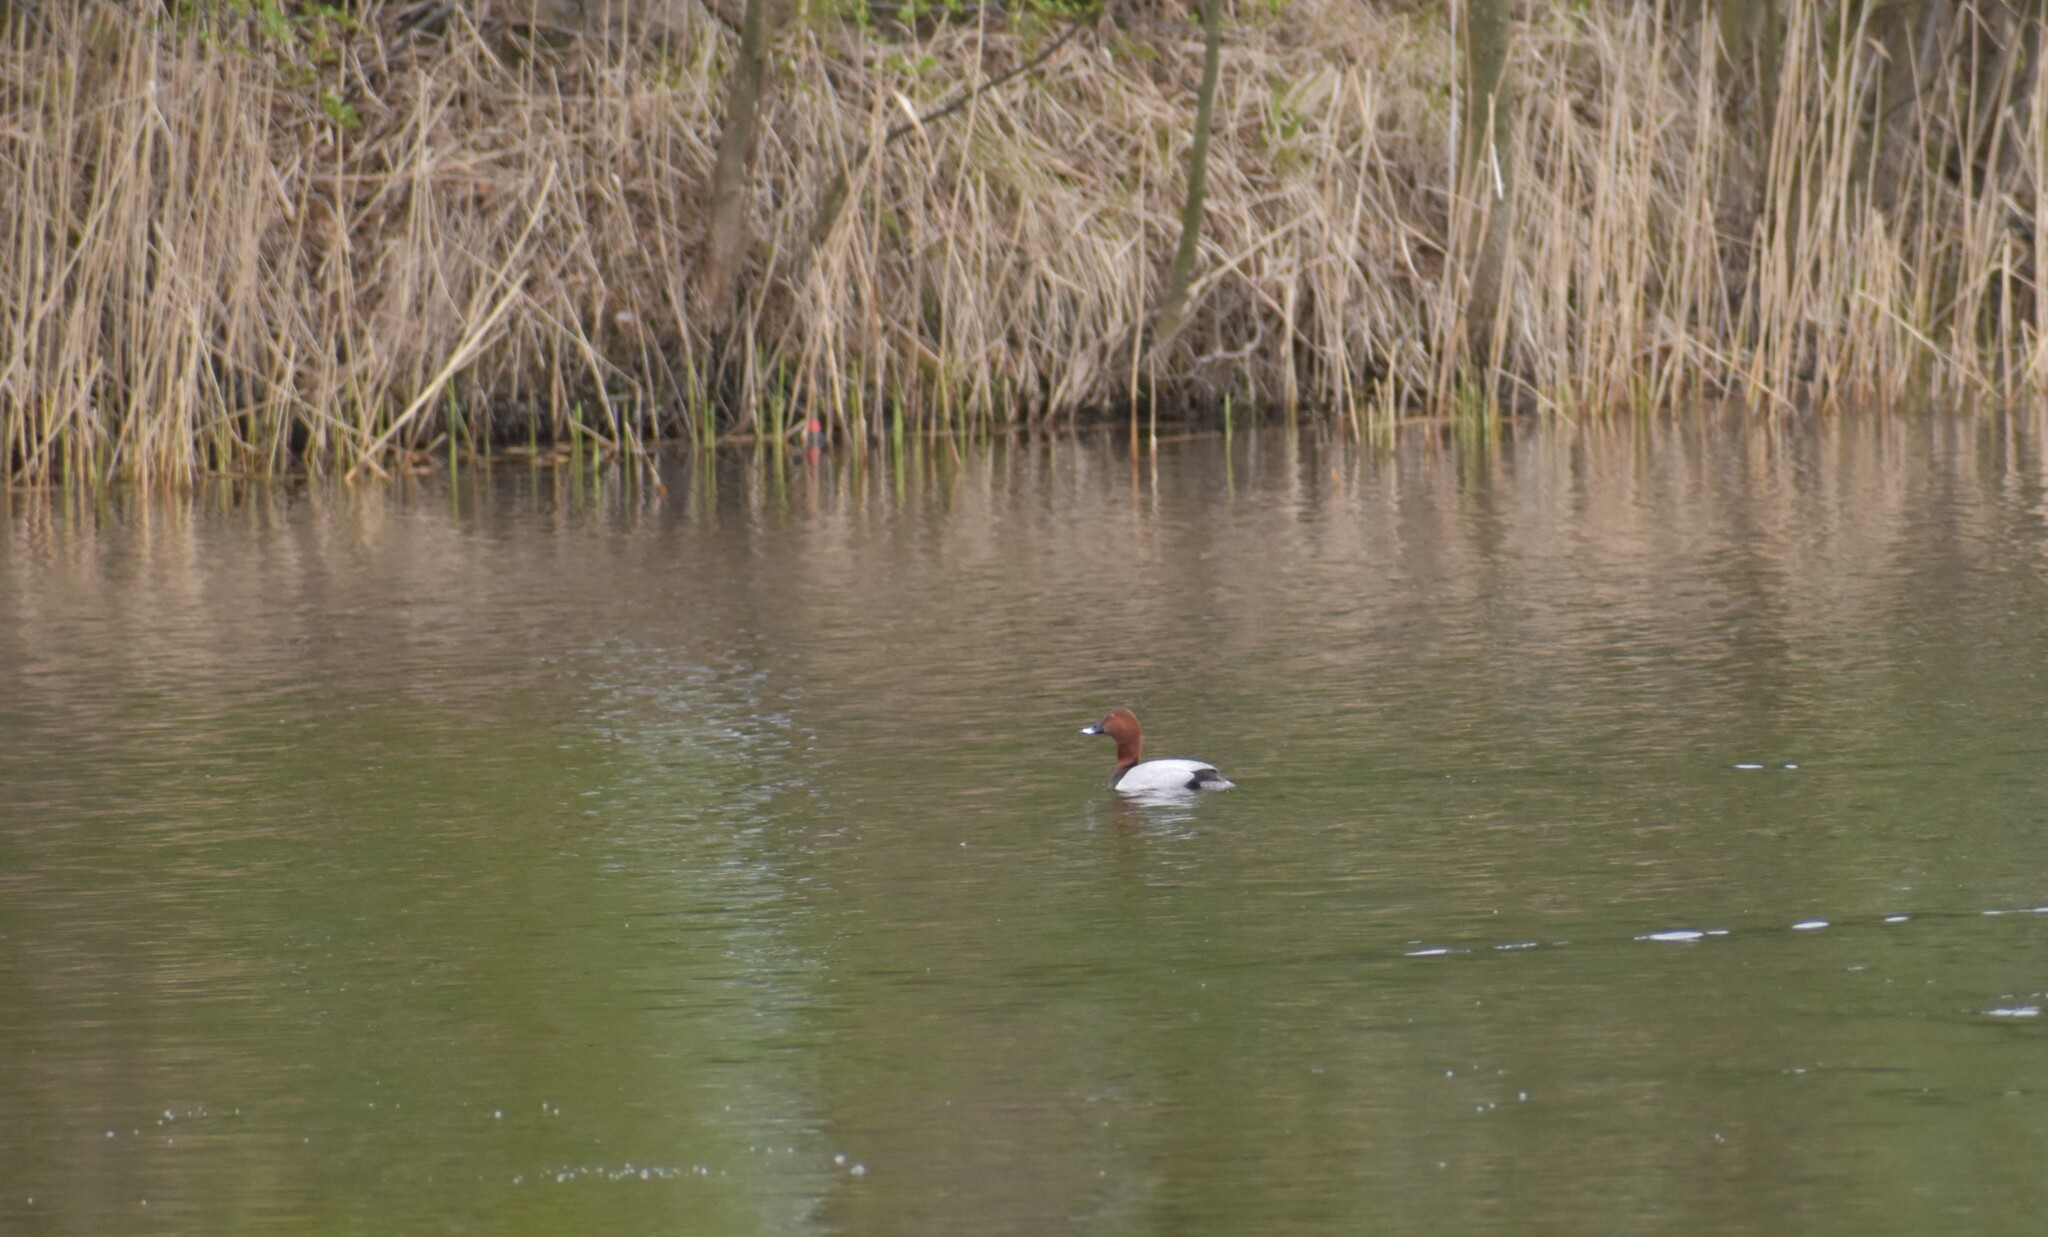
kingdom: Animalia
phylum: Chordata
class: Aves
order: Anseriformes
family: Anatidae
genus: Aythya
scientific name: Aythya ferina
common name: Common pochard
